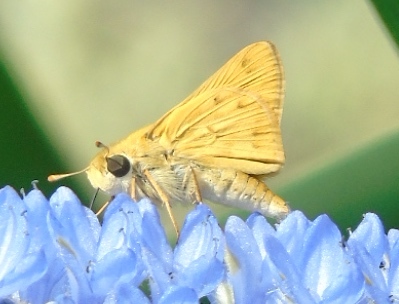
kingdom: Animalia
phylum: Arthropoda
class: Insecta
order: Lepidoptera
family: Hesperiidae
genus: Hylephila
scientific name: Hylephila phyleus
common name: Fiery skipper
